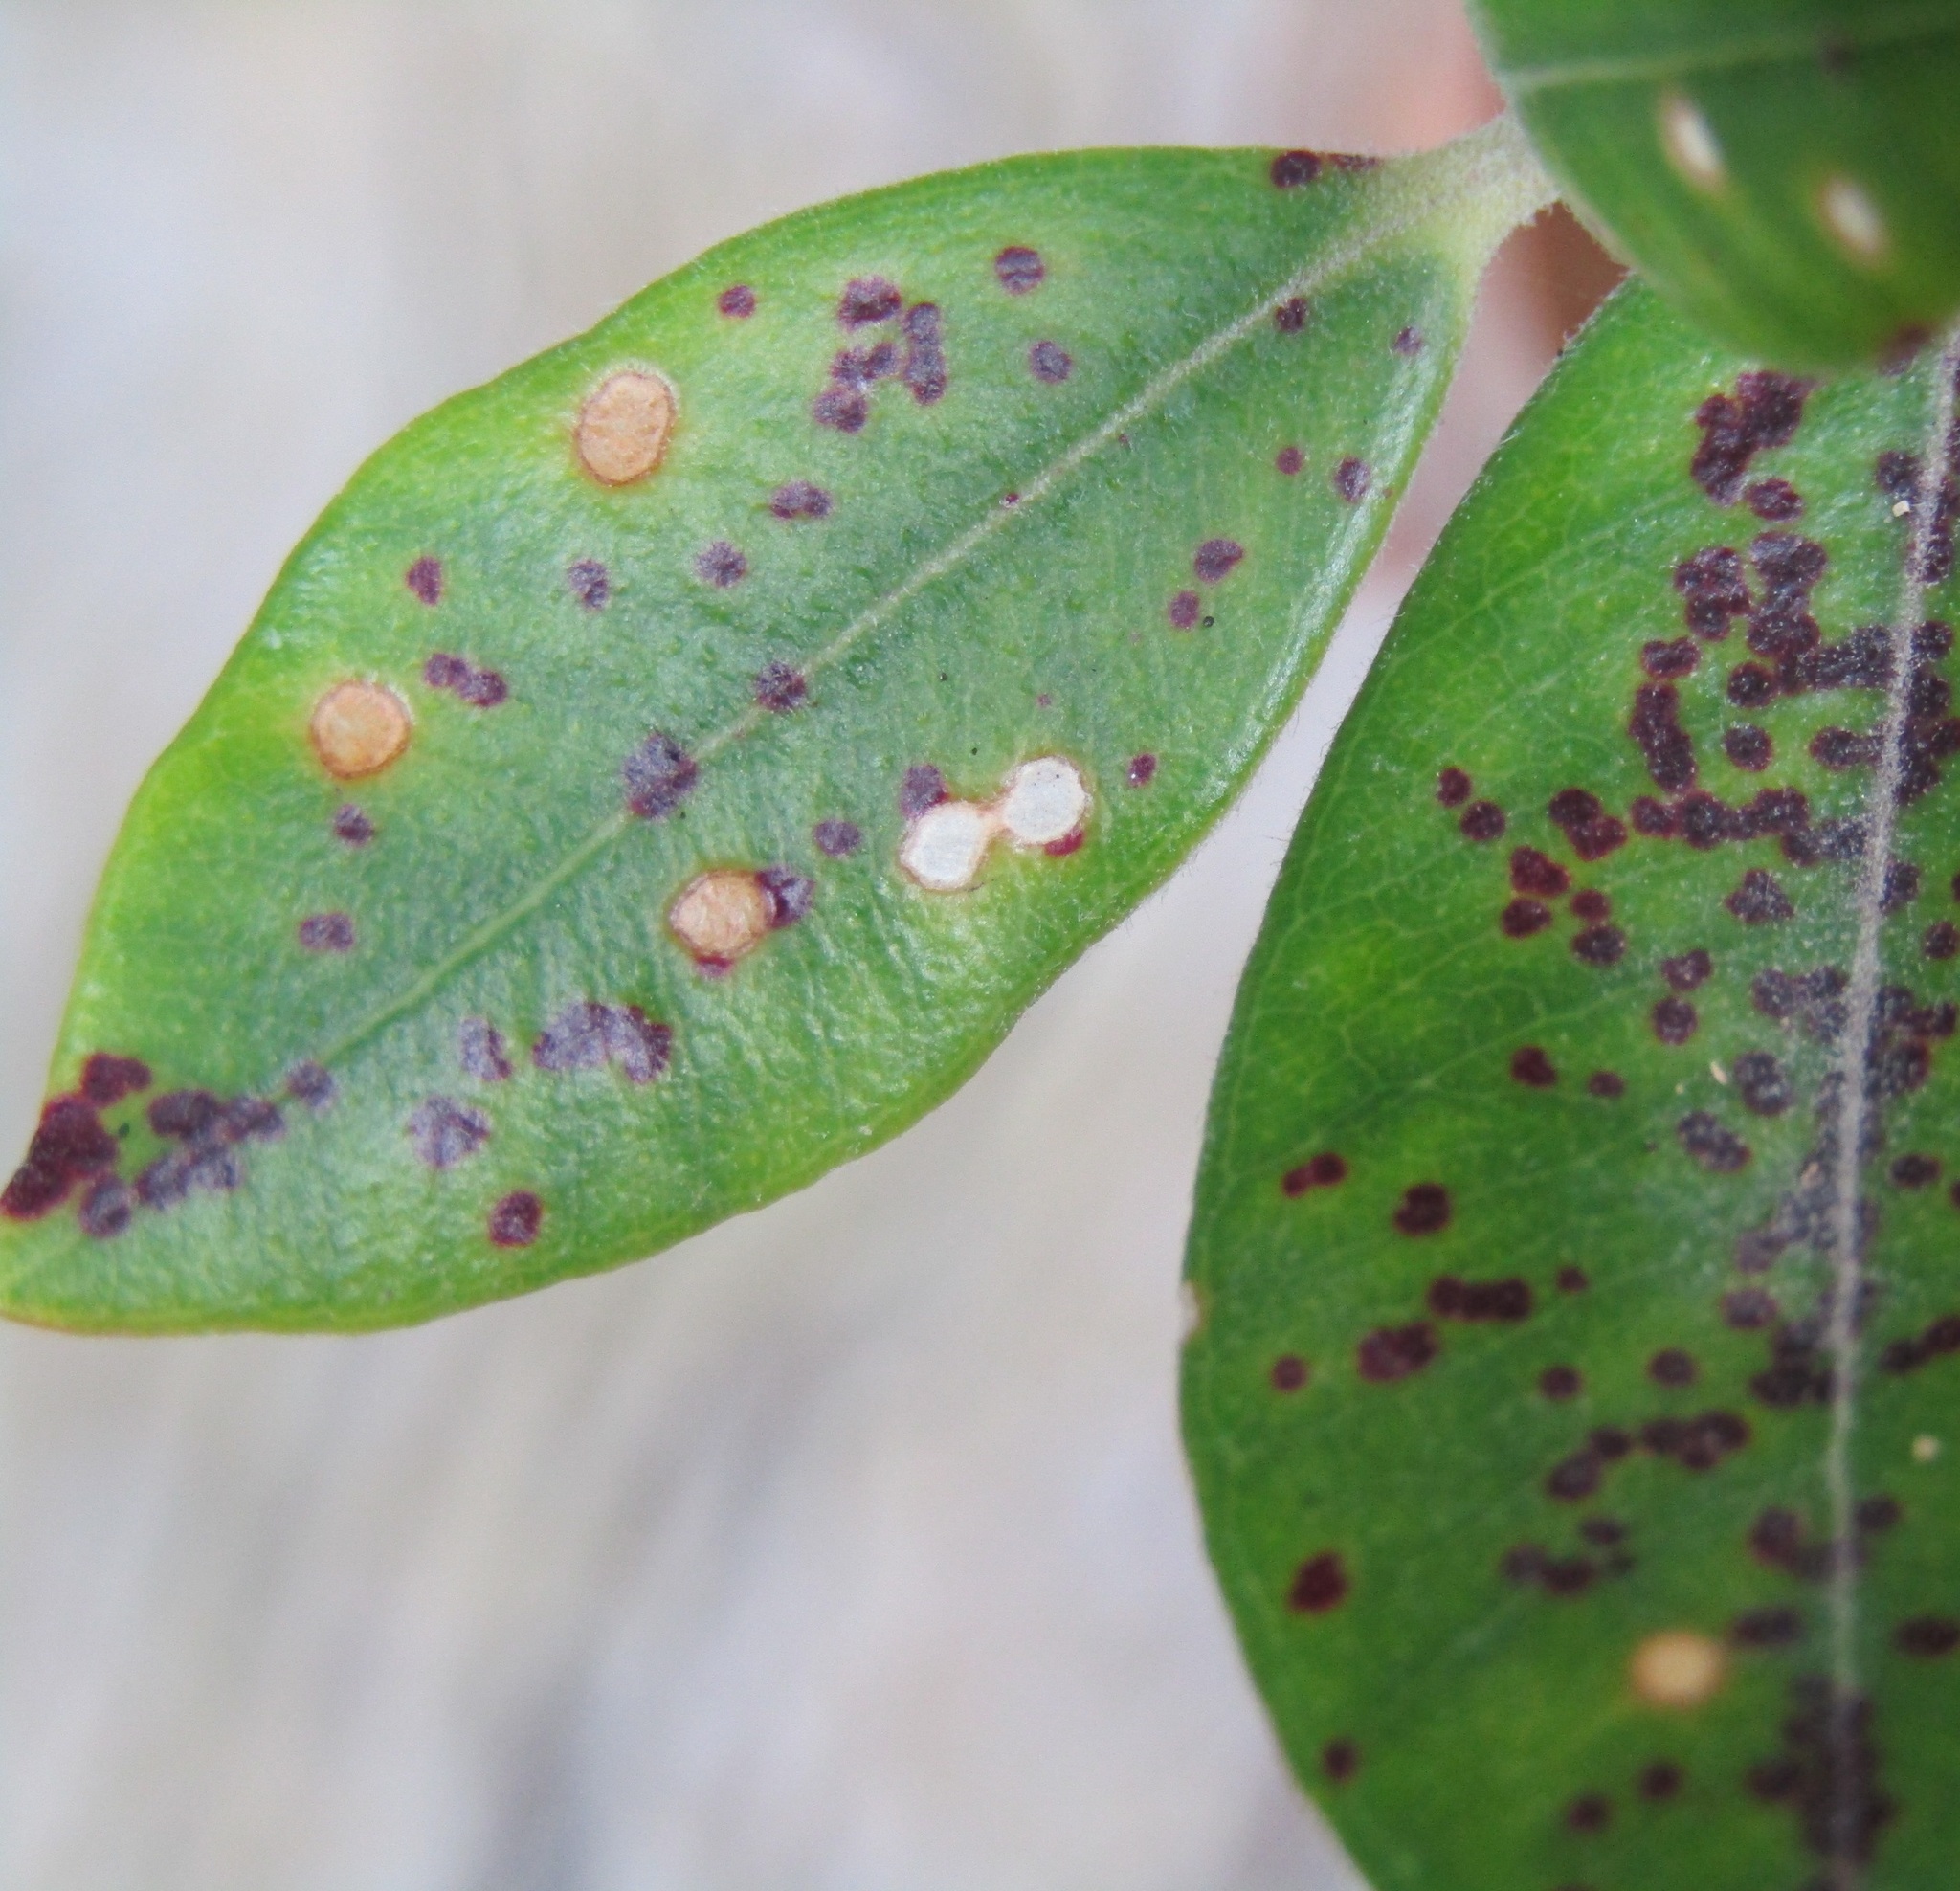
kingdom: Plantae
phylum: Tracheophyta
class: Magnoliopsida
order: Myrtales
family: Myrtaceae
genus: Metrosideros
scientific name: Metrosideros excelsa
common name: New zealand christmastree
